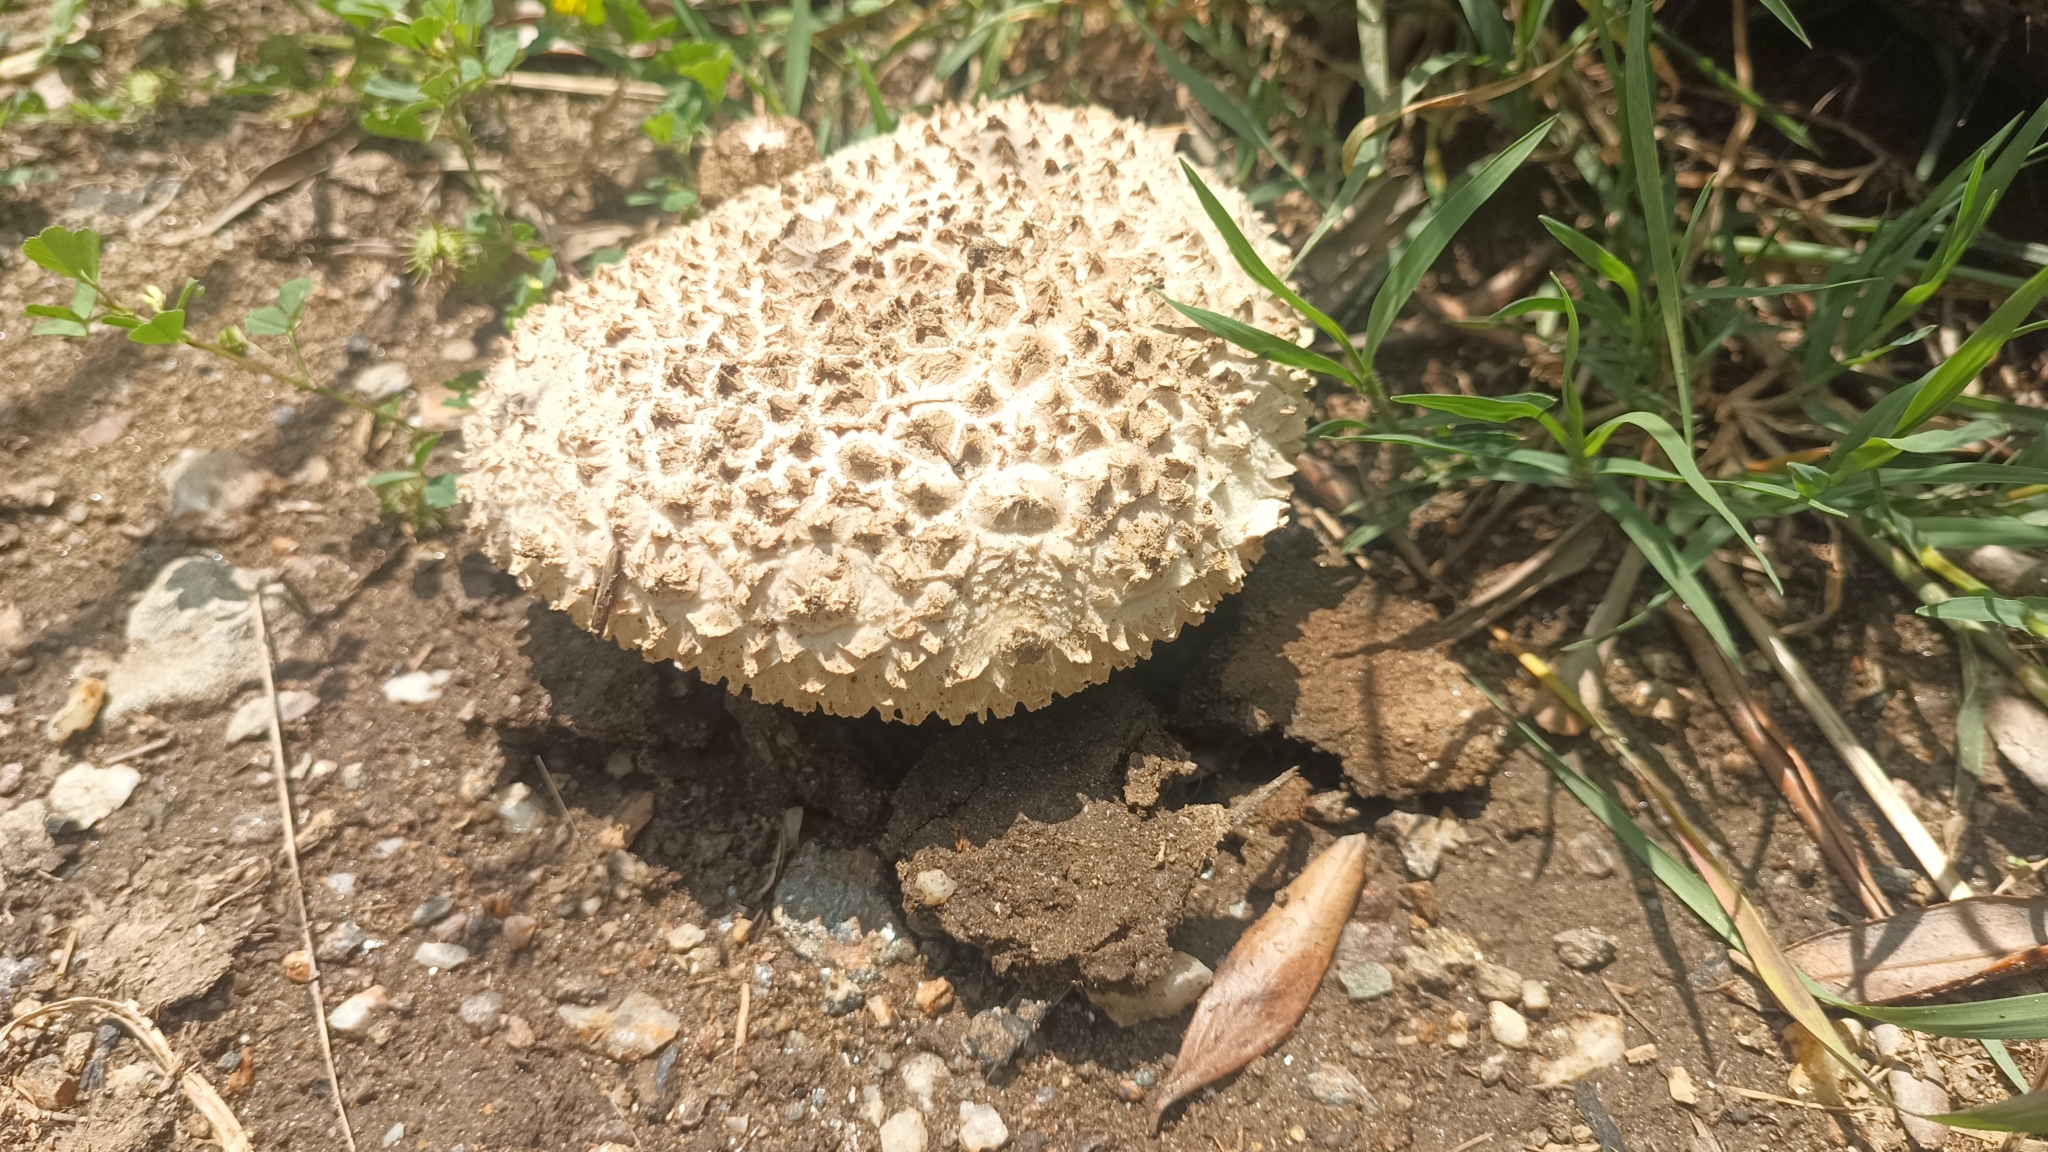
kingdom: Fungi
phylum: Basidiomycota
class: Agaricomycetes
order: Agaricales
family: Amanitaceae
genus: Amanita
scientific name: Amanita strobiliformis
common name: Warted amanita
